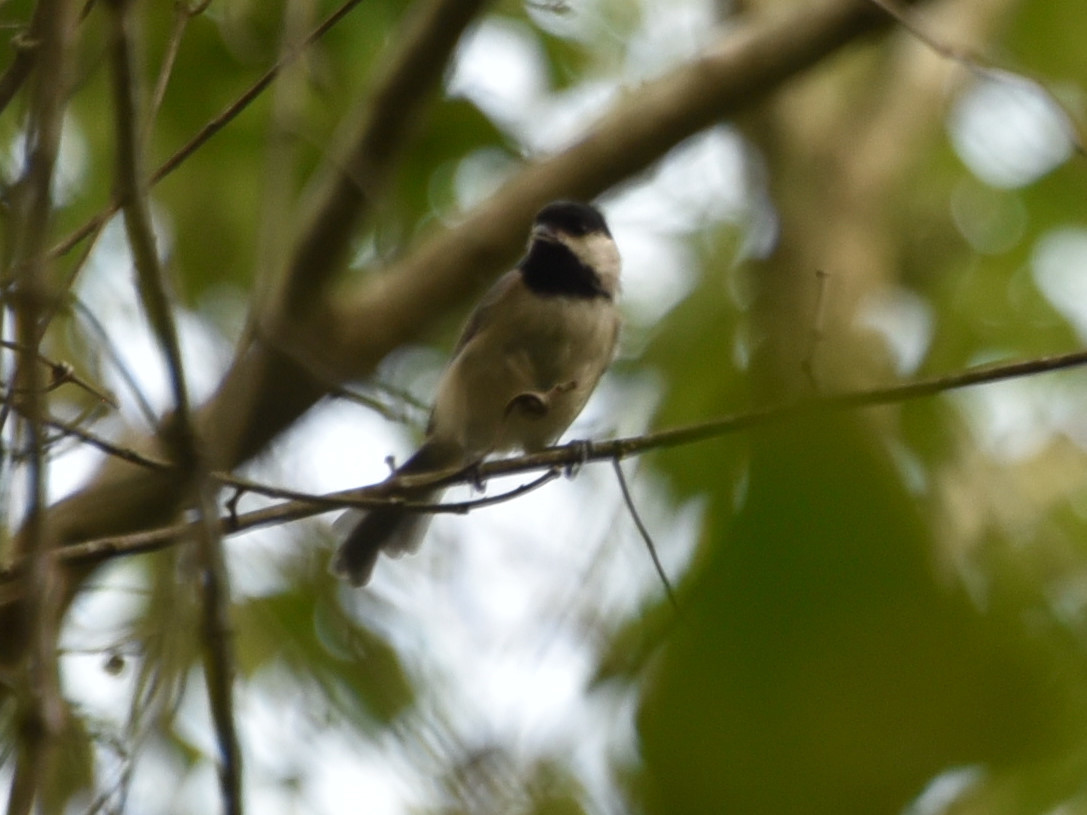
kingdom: Animalia
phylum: Chordata
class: Aves
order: Passeriformes
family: Paridae
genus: Poecile
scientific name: Poecile carolinensis
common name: Carolina chickadee
